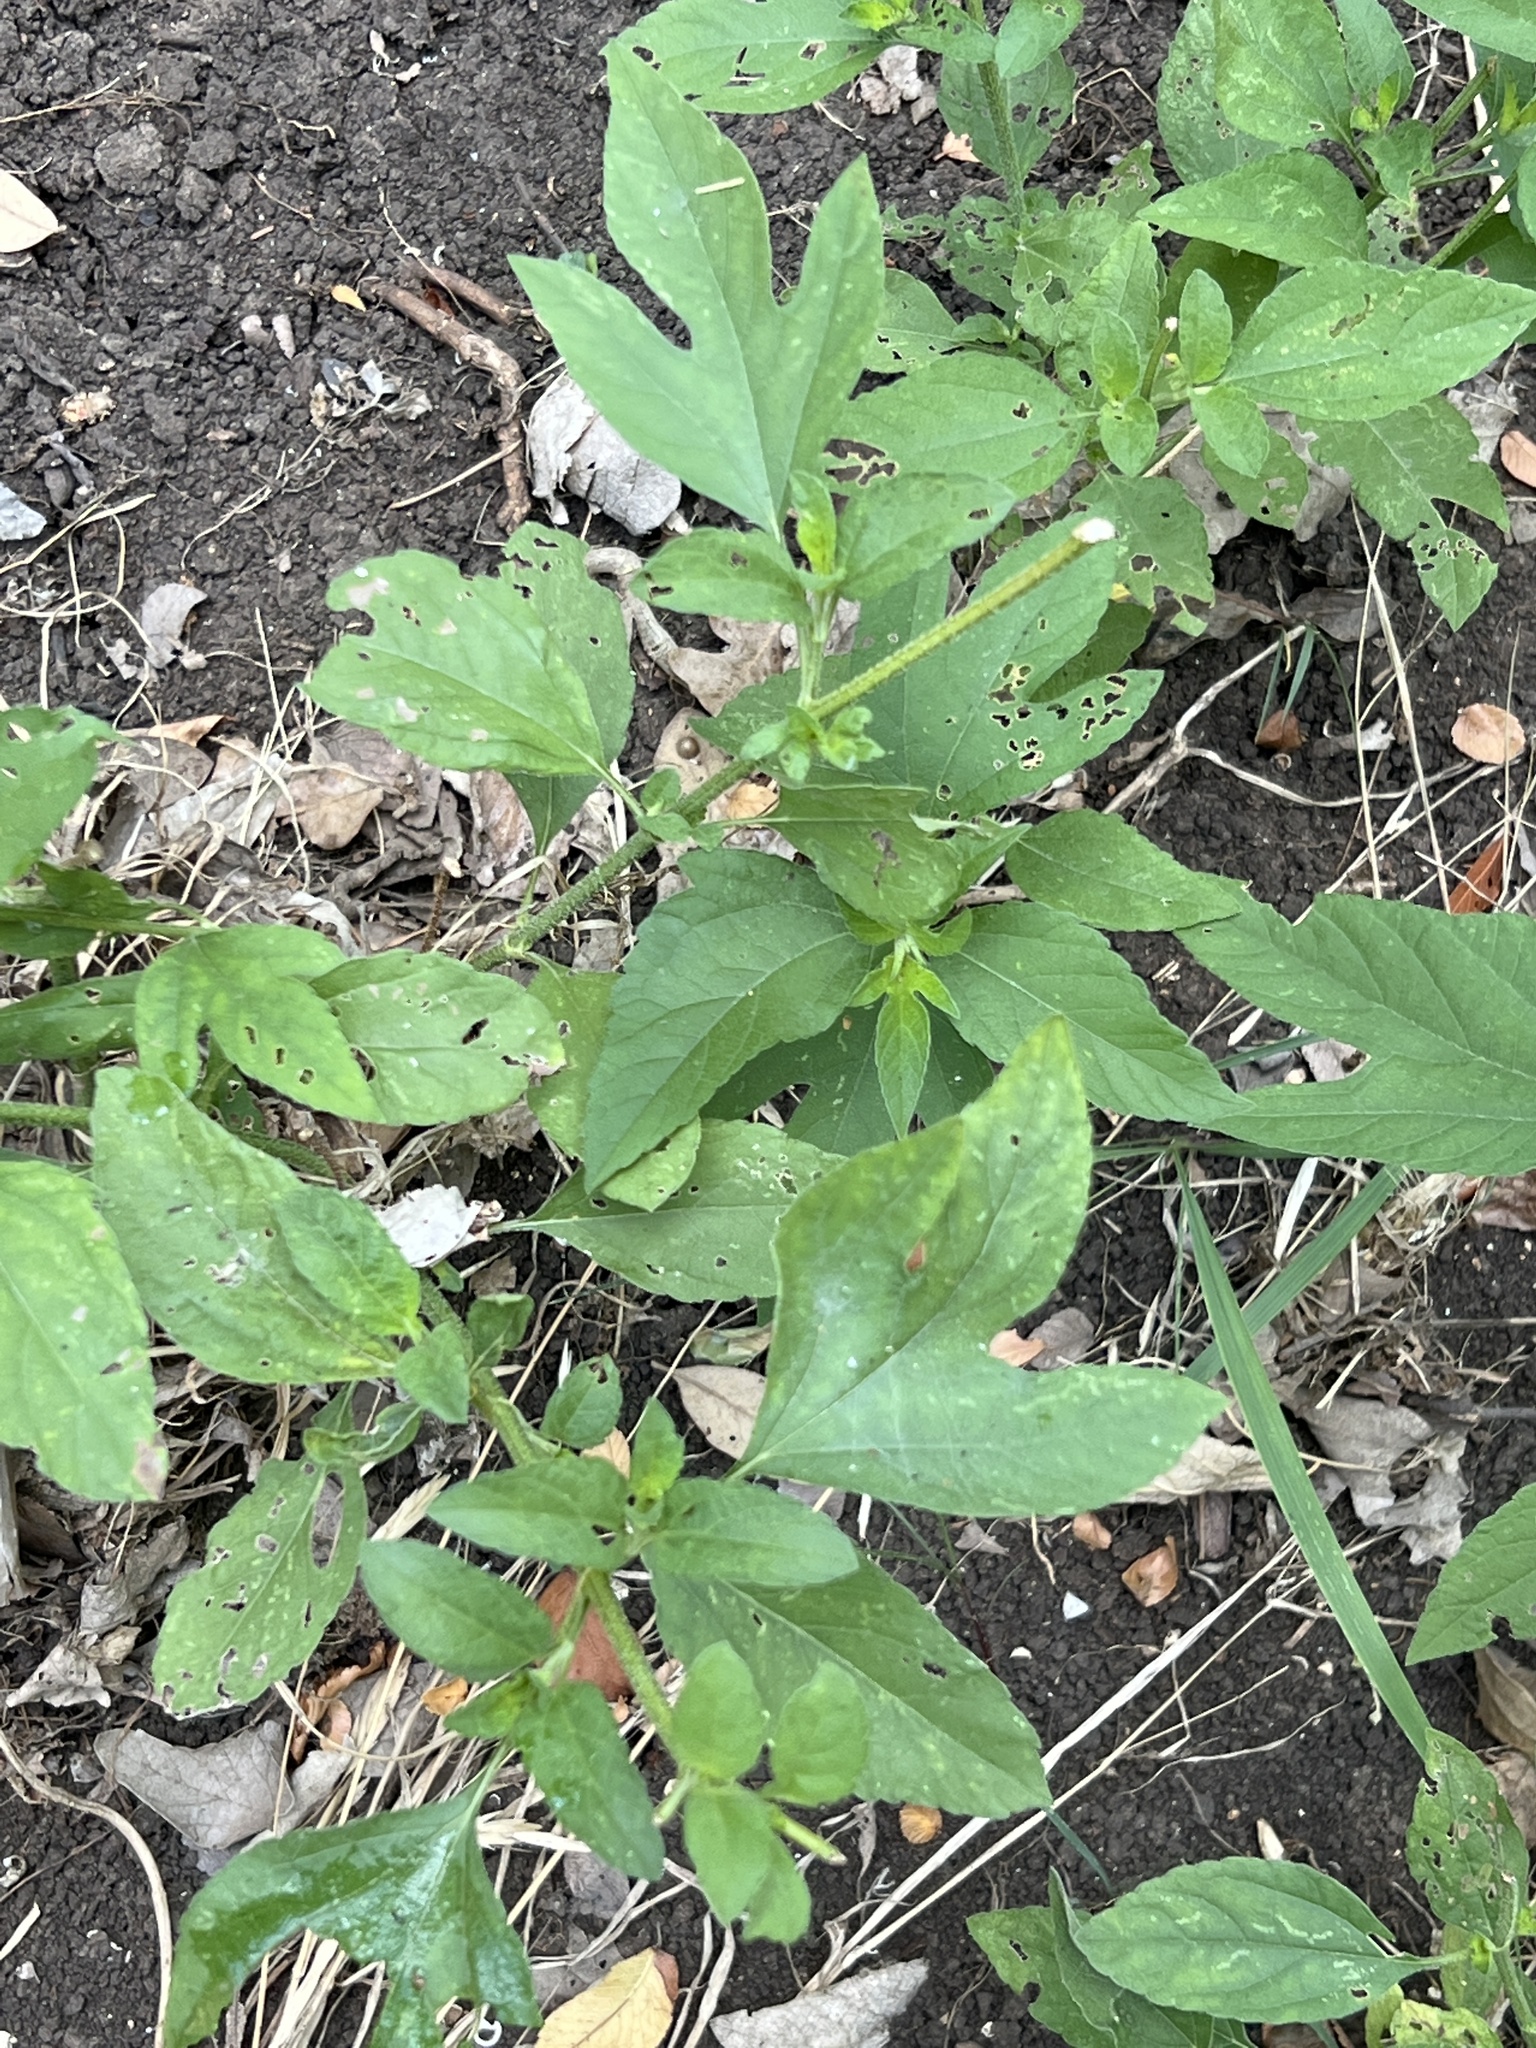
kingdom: Plantae
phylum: Tracheophyta
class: Magnoliopsida
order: Asterales
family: Asteraceae
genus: Ambrosia
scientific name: Ambrosia trifida
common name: Giant ragweed
